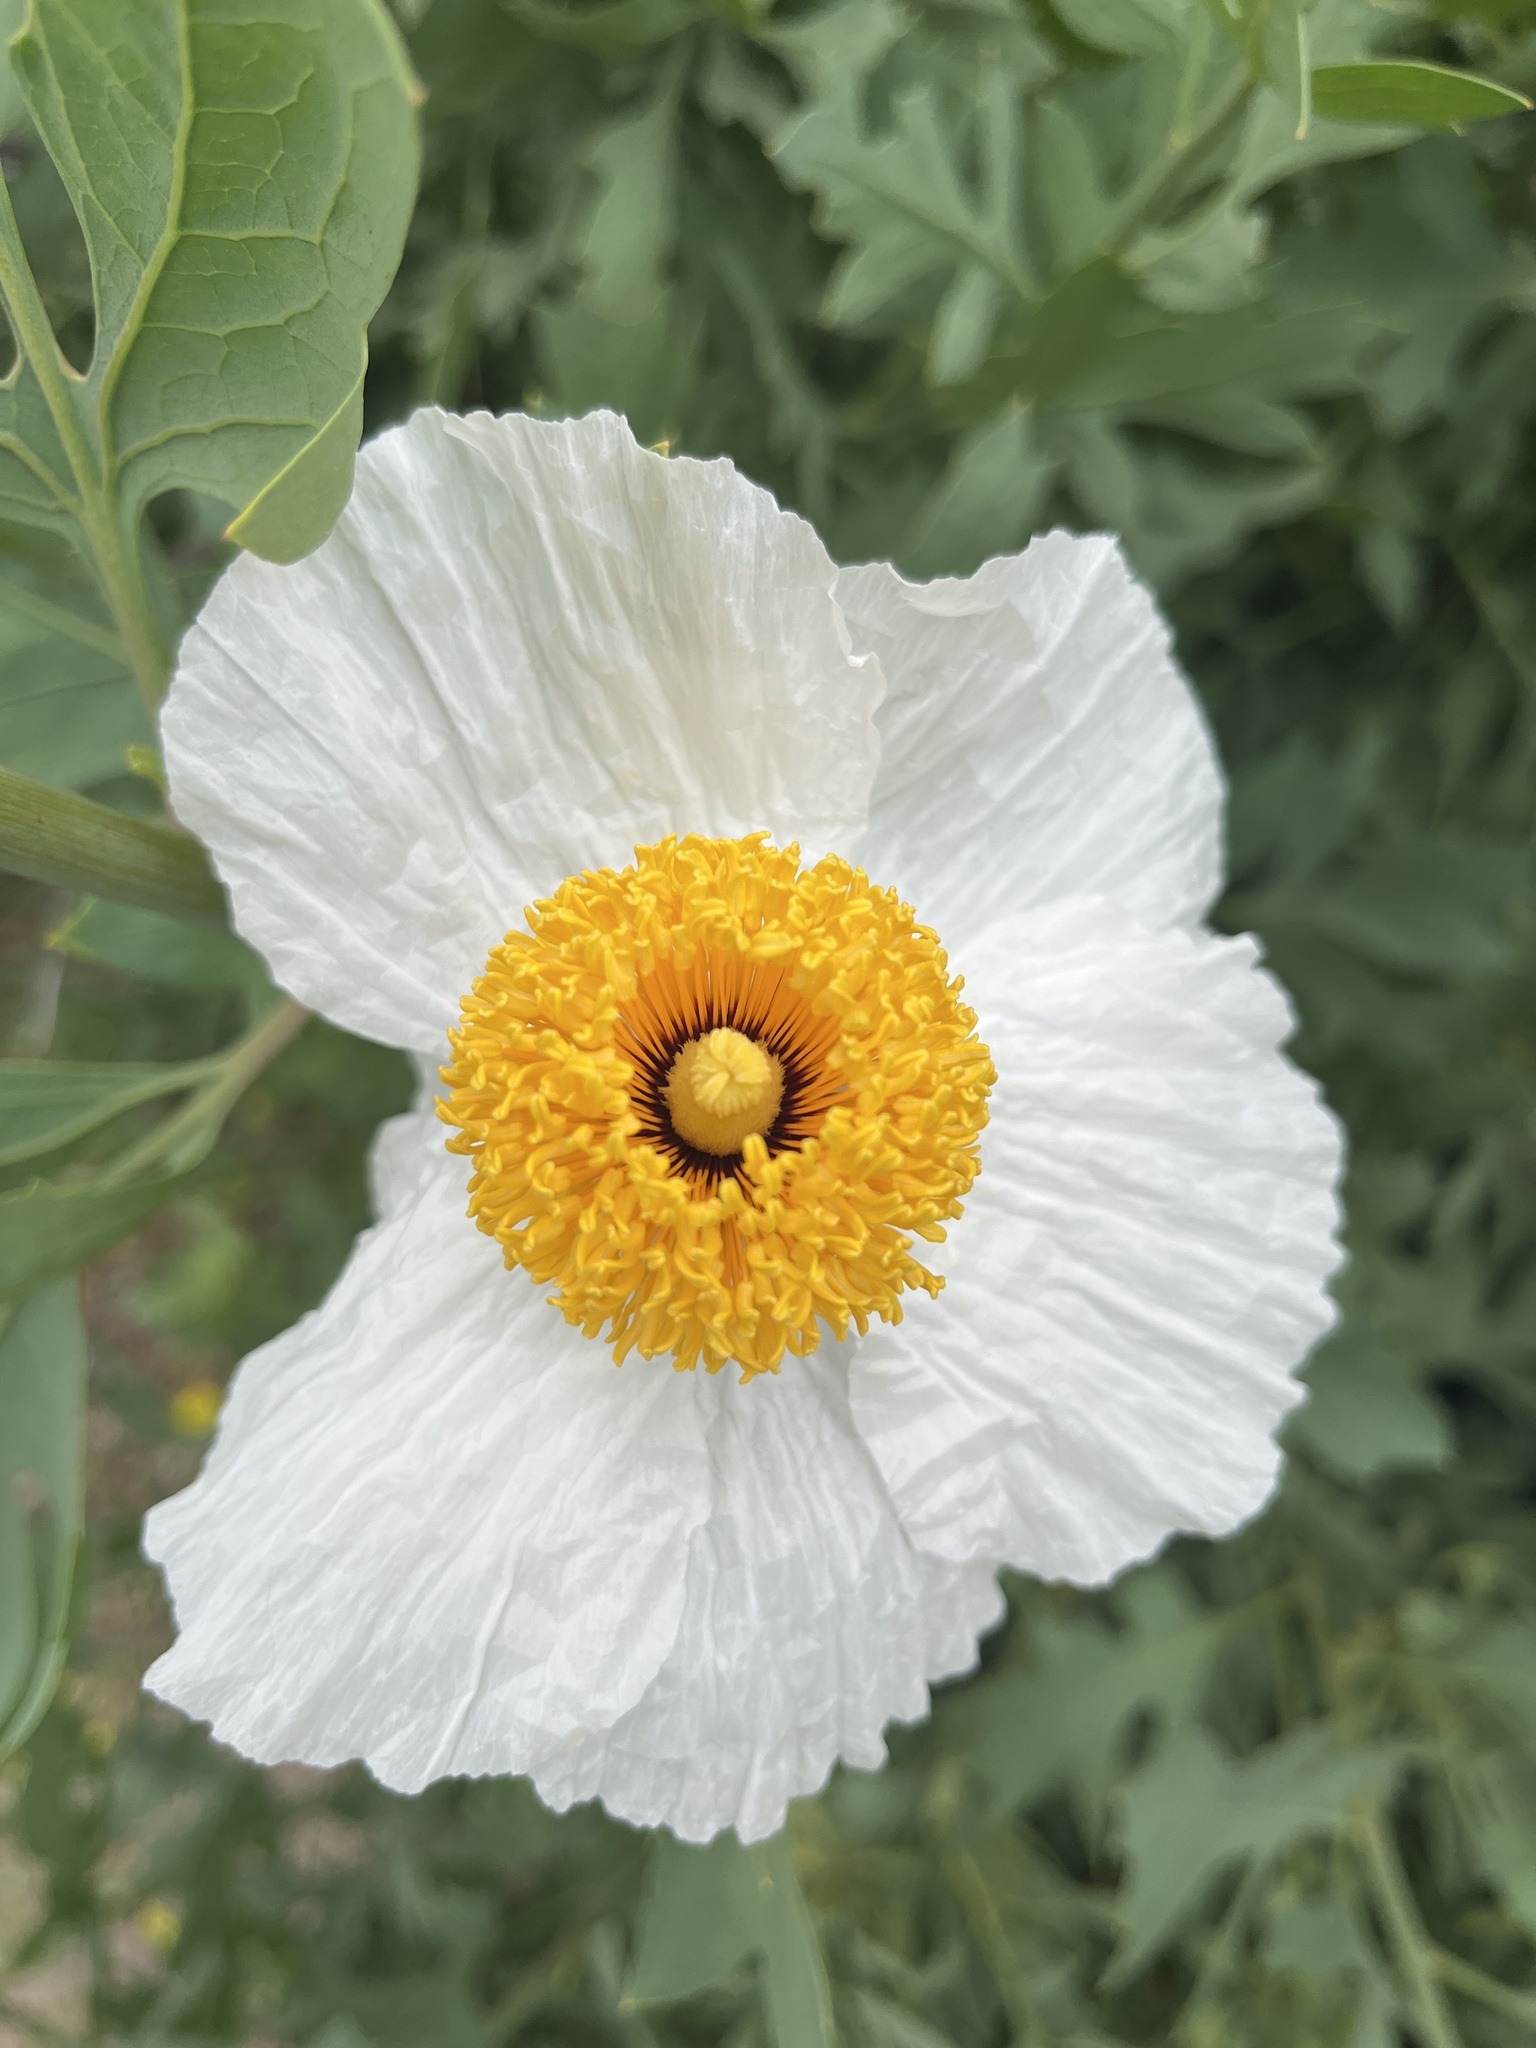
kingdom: Plantae
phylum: Tracheophyta
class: Magnoliopsida
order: Ranunculales
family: Papaveraceae
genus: Romneya
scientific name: Romneya
